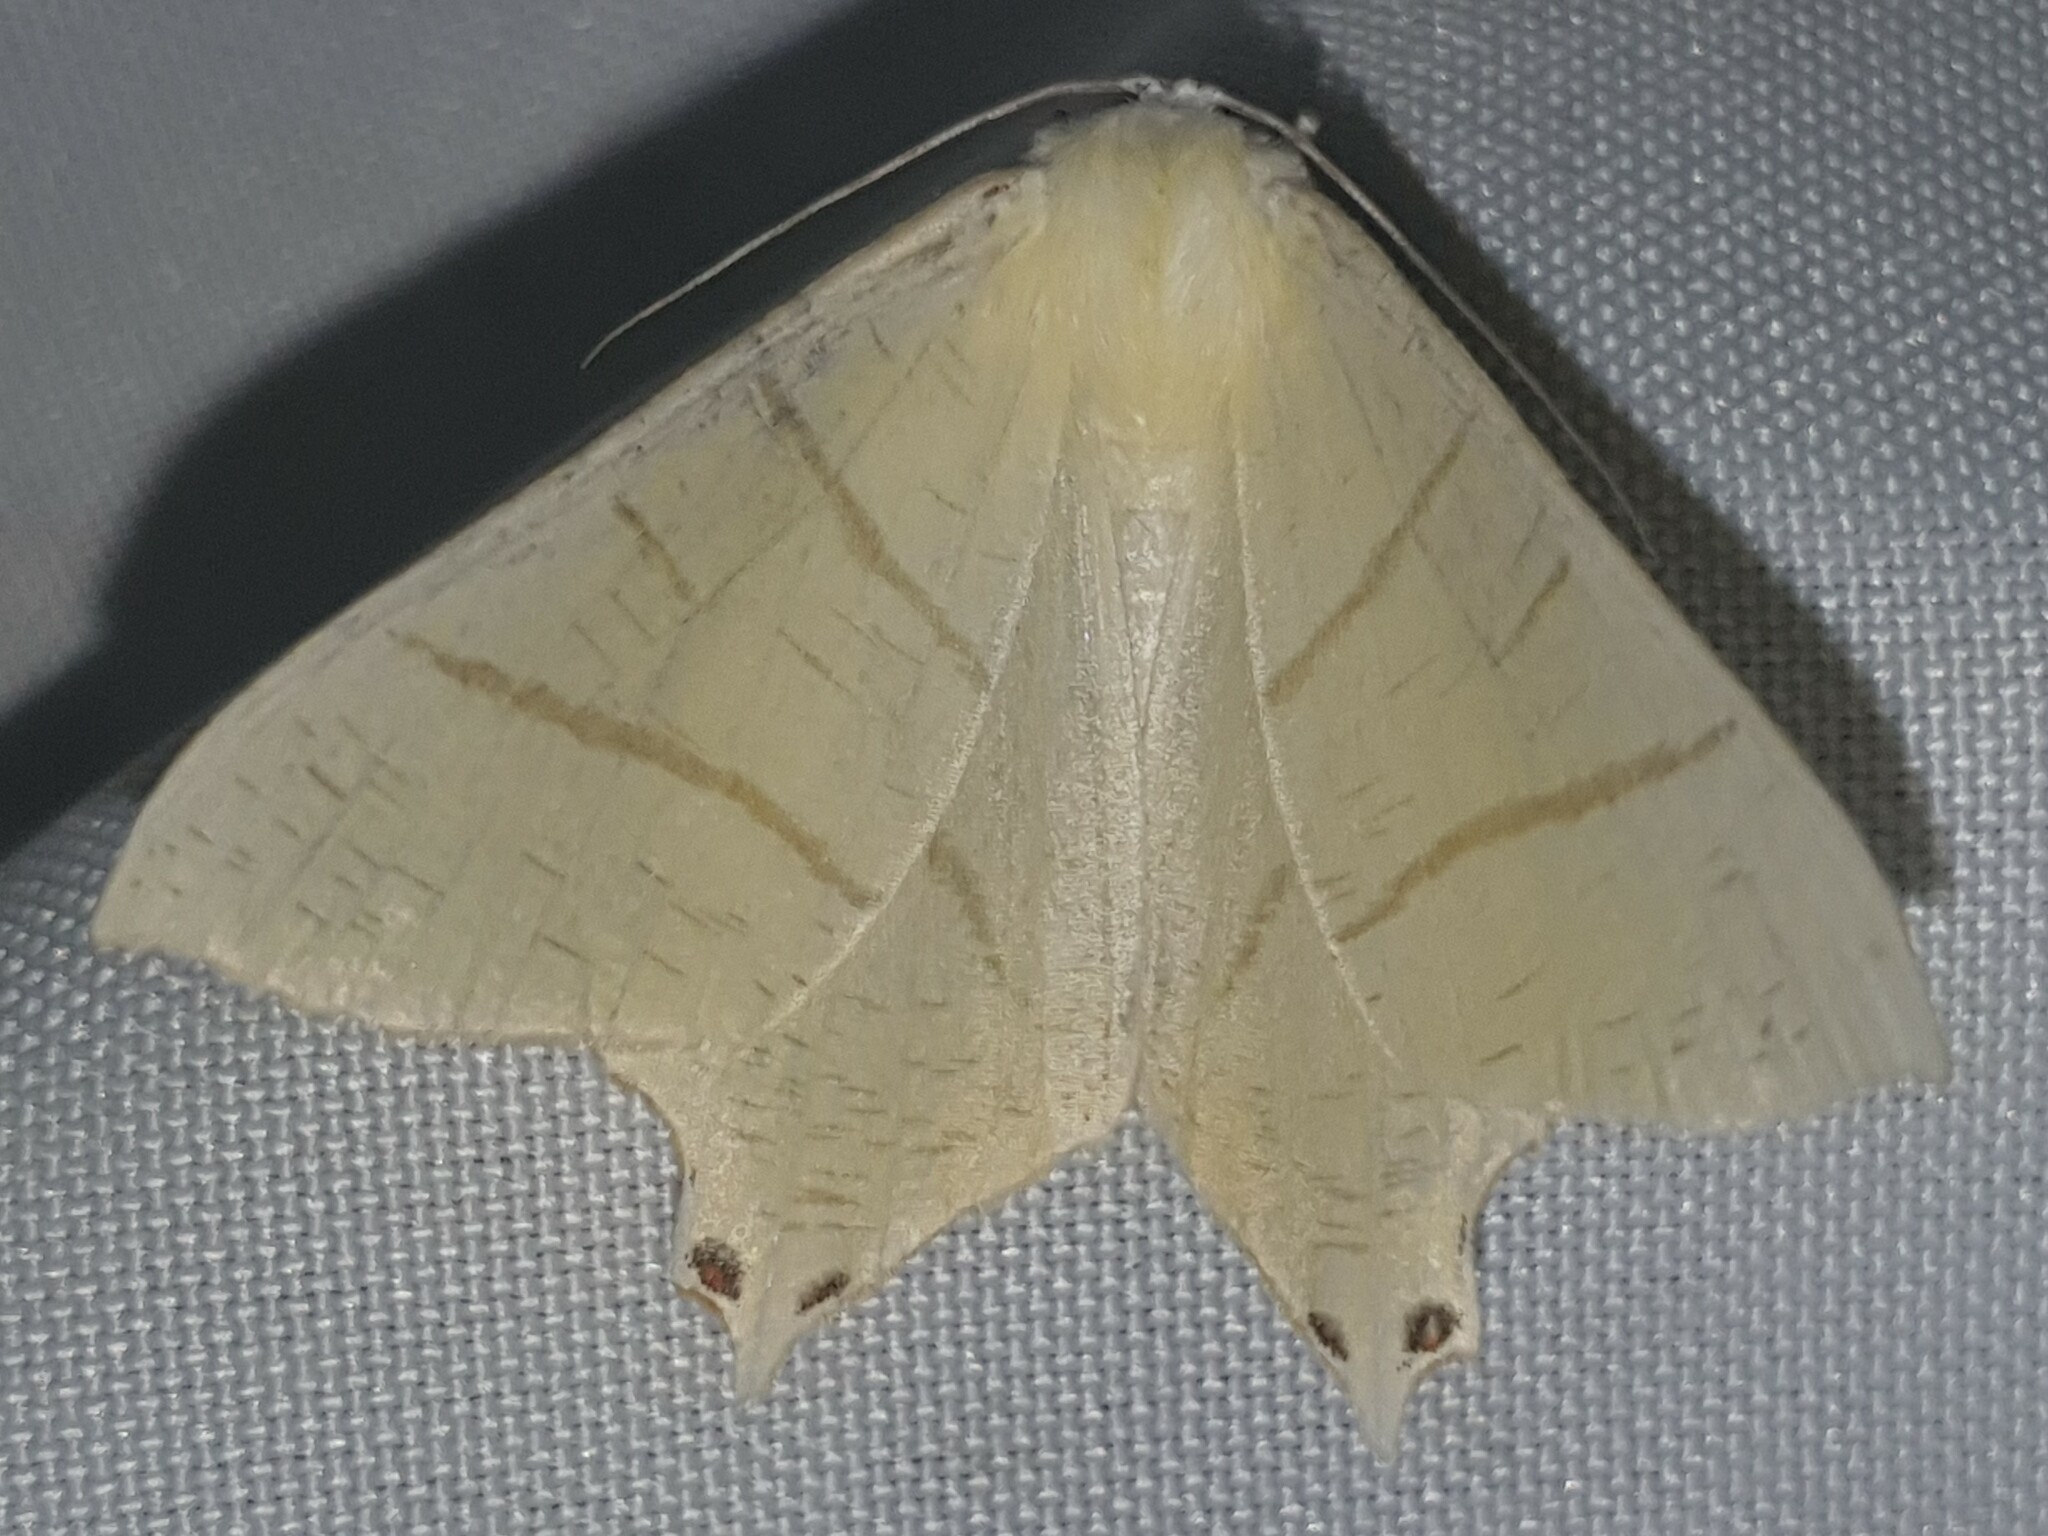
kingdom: Animalia
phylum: Arthropoda
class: Insecta
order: Lepidoptera
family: Geometridae
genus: Ourapteryx
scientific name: Ourapteryx sambucaria
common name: Swallow-tailed moth
